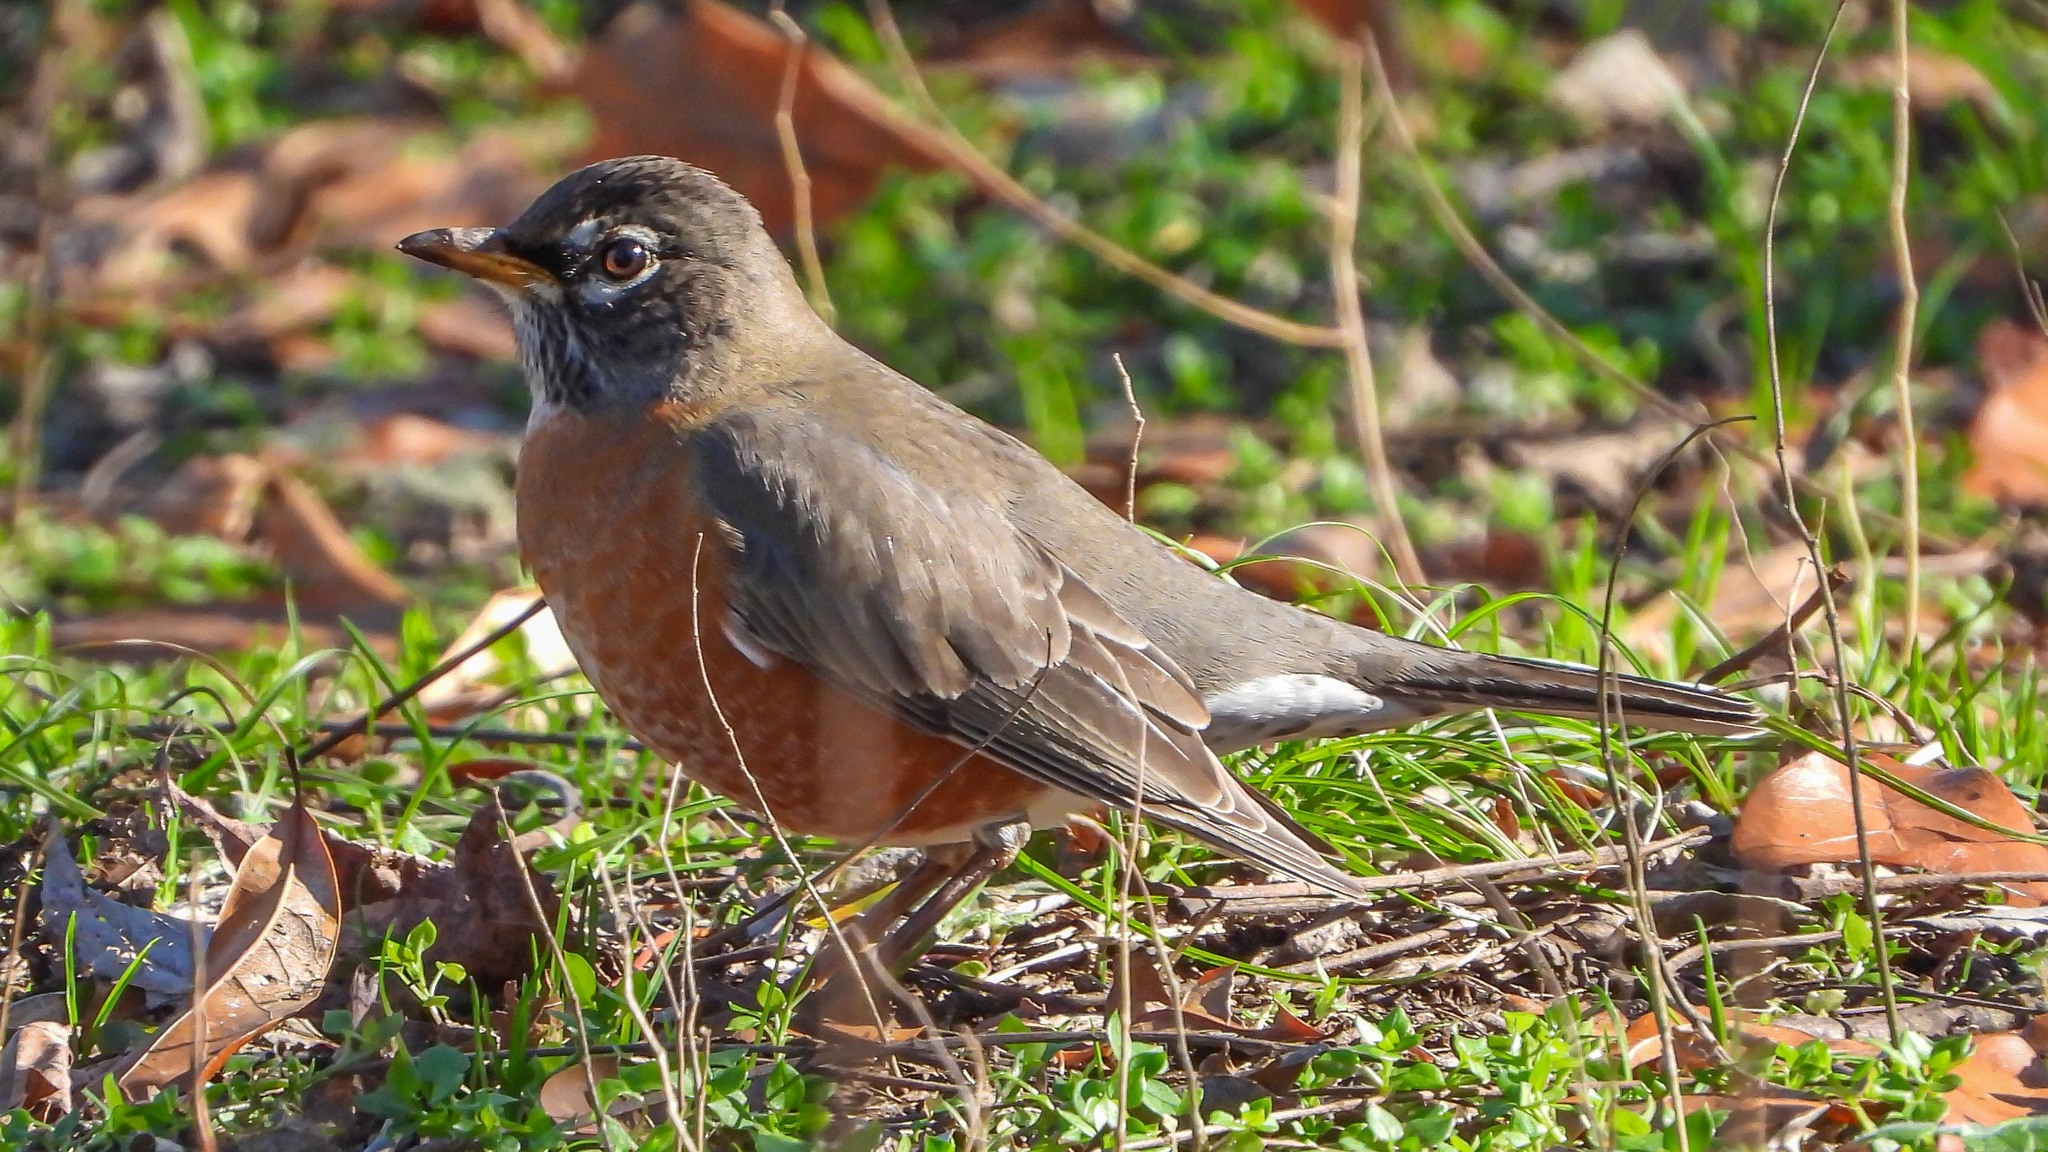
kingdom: Animalia
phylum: Chordata
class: Aves
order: Passeriformes
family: Turdidae
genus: Turdus
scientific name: Turdus migratorius
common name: American robin
